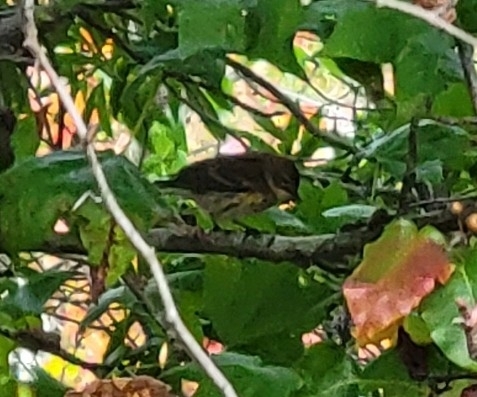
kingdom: Animalia
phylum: Chordata
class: Aves
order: Passeriformes
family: Parulidae
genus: Setophaga
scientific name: Setophaga coronata
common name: Myrtle warbler
